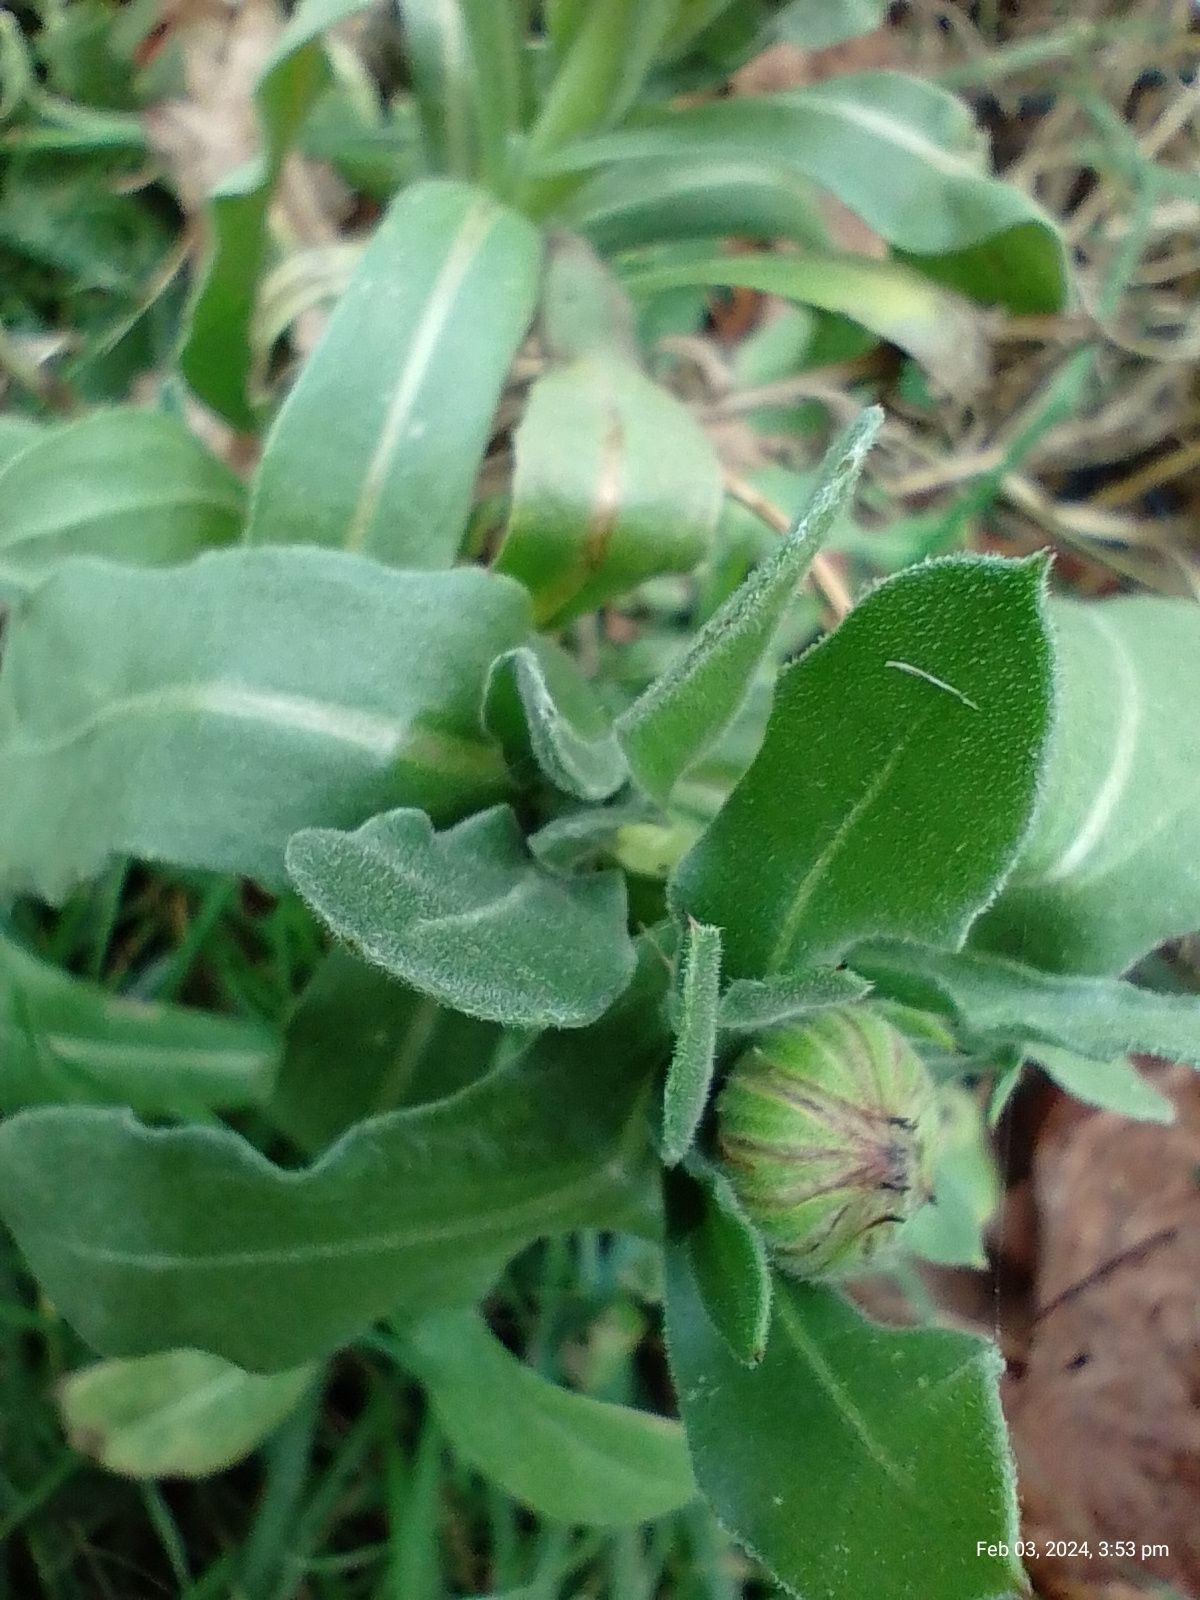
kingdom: Plantae
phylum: Tracheophyta
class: Magnoliopsida
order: Asterales
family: Asteraceae
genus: Calendula
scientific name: Calendula officinalis
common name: Pot marigold
